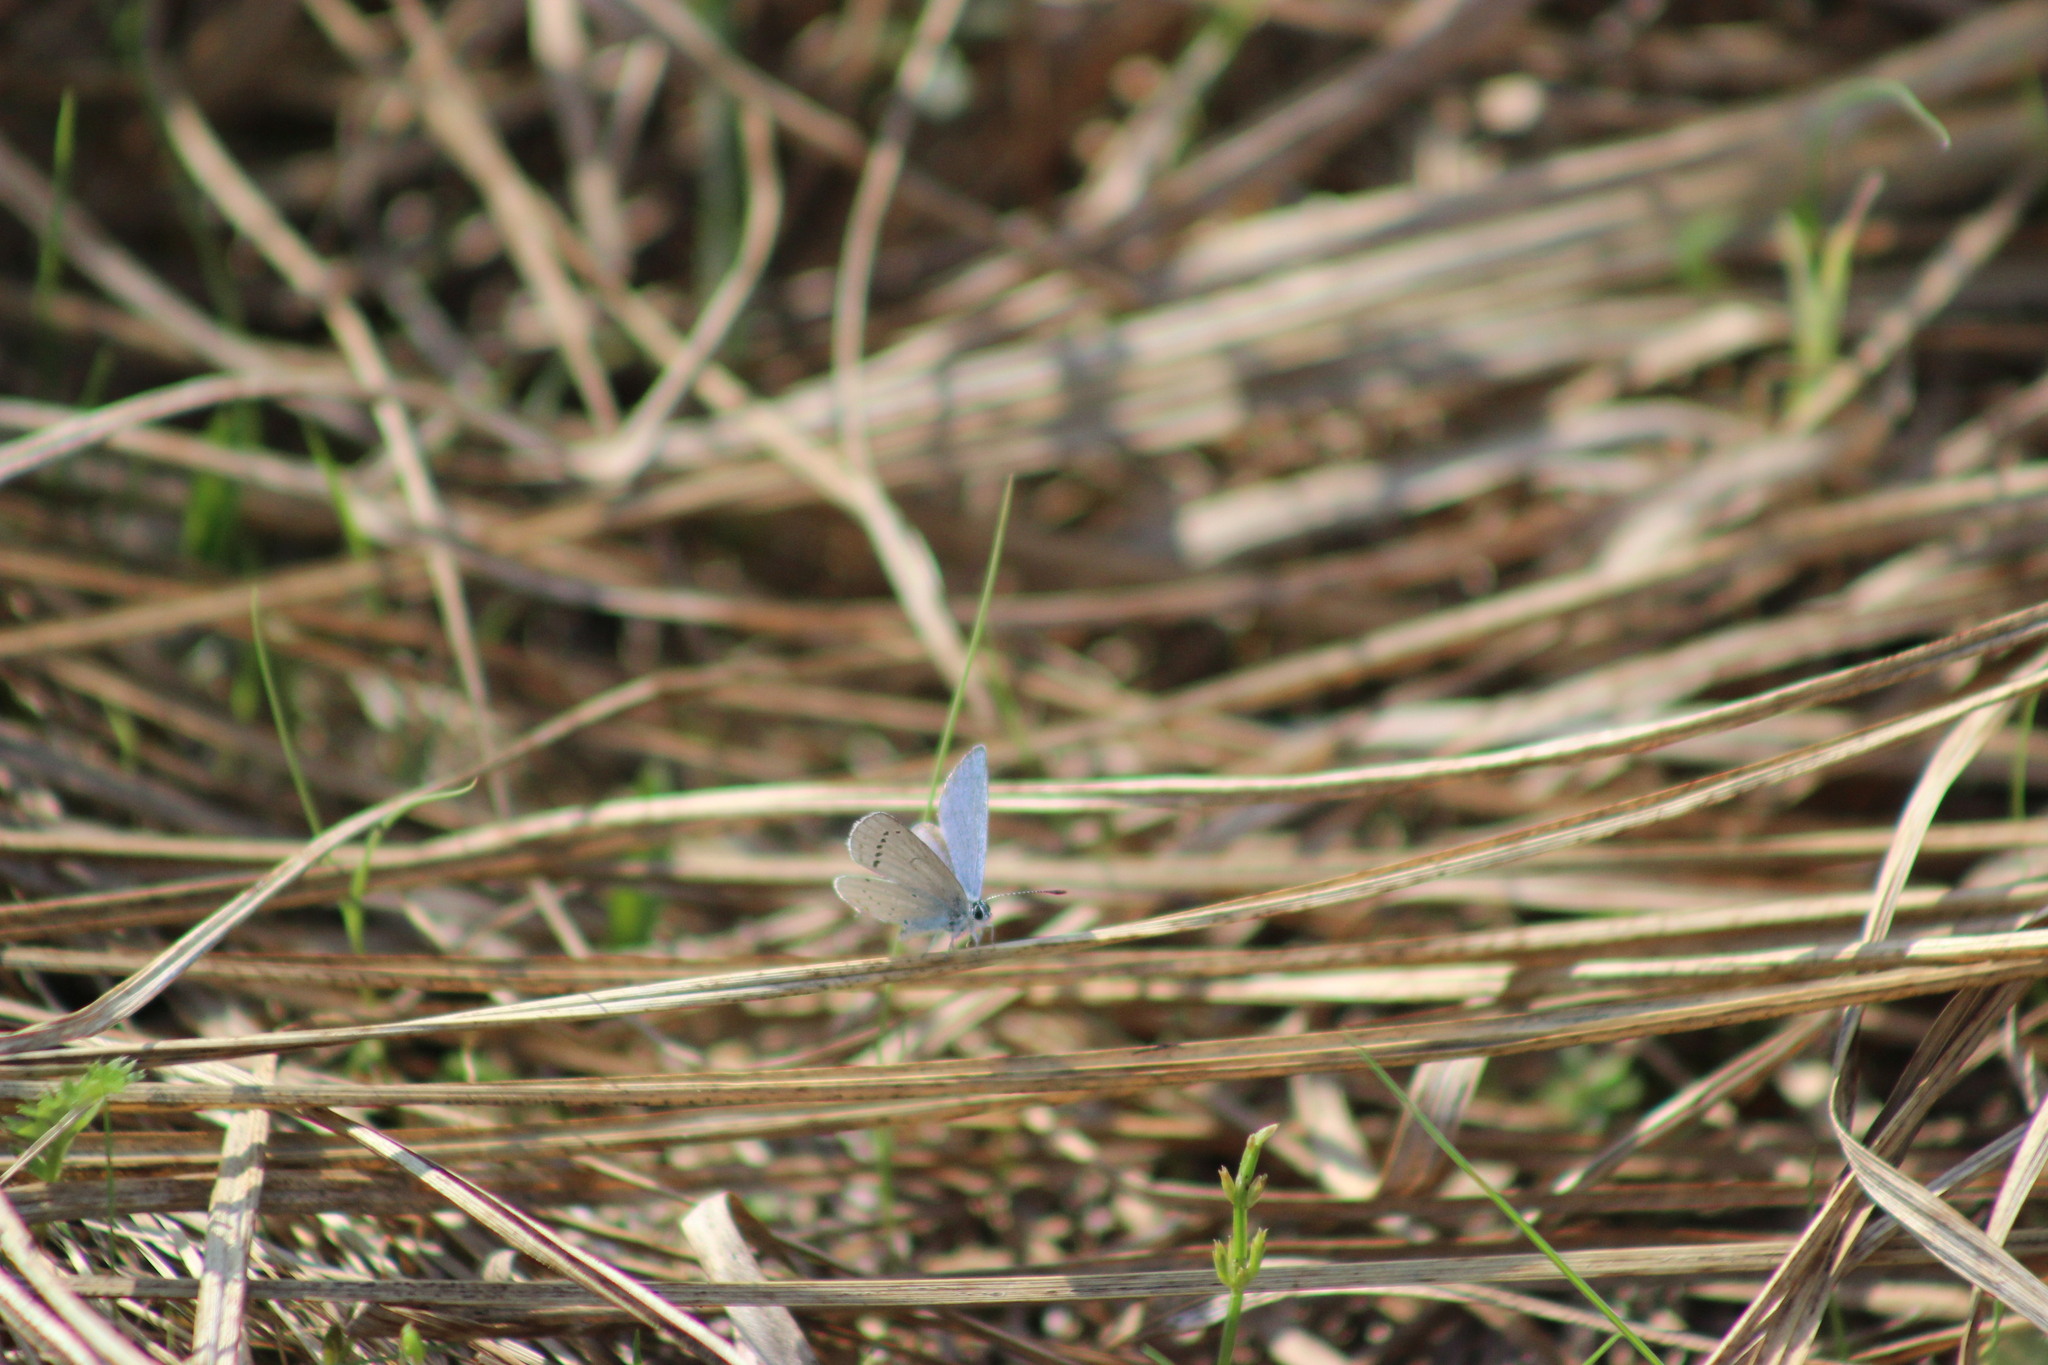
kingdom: Animalia
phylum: Arthropoda
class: Insecta
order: Lepidoptera
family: Lycaenidae
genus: Elkalyce
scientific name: Elkalyce argiades
